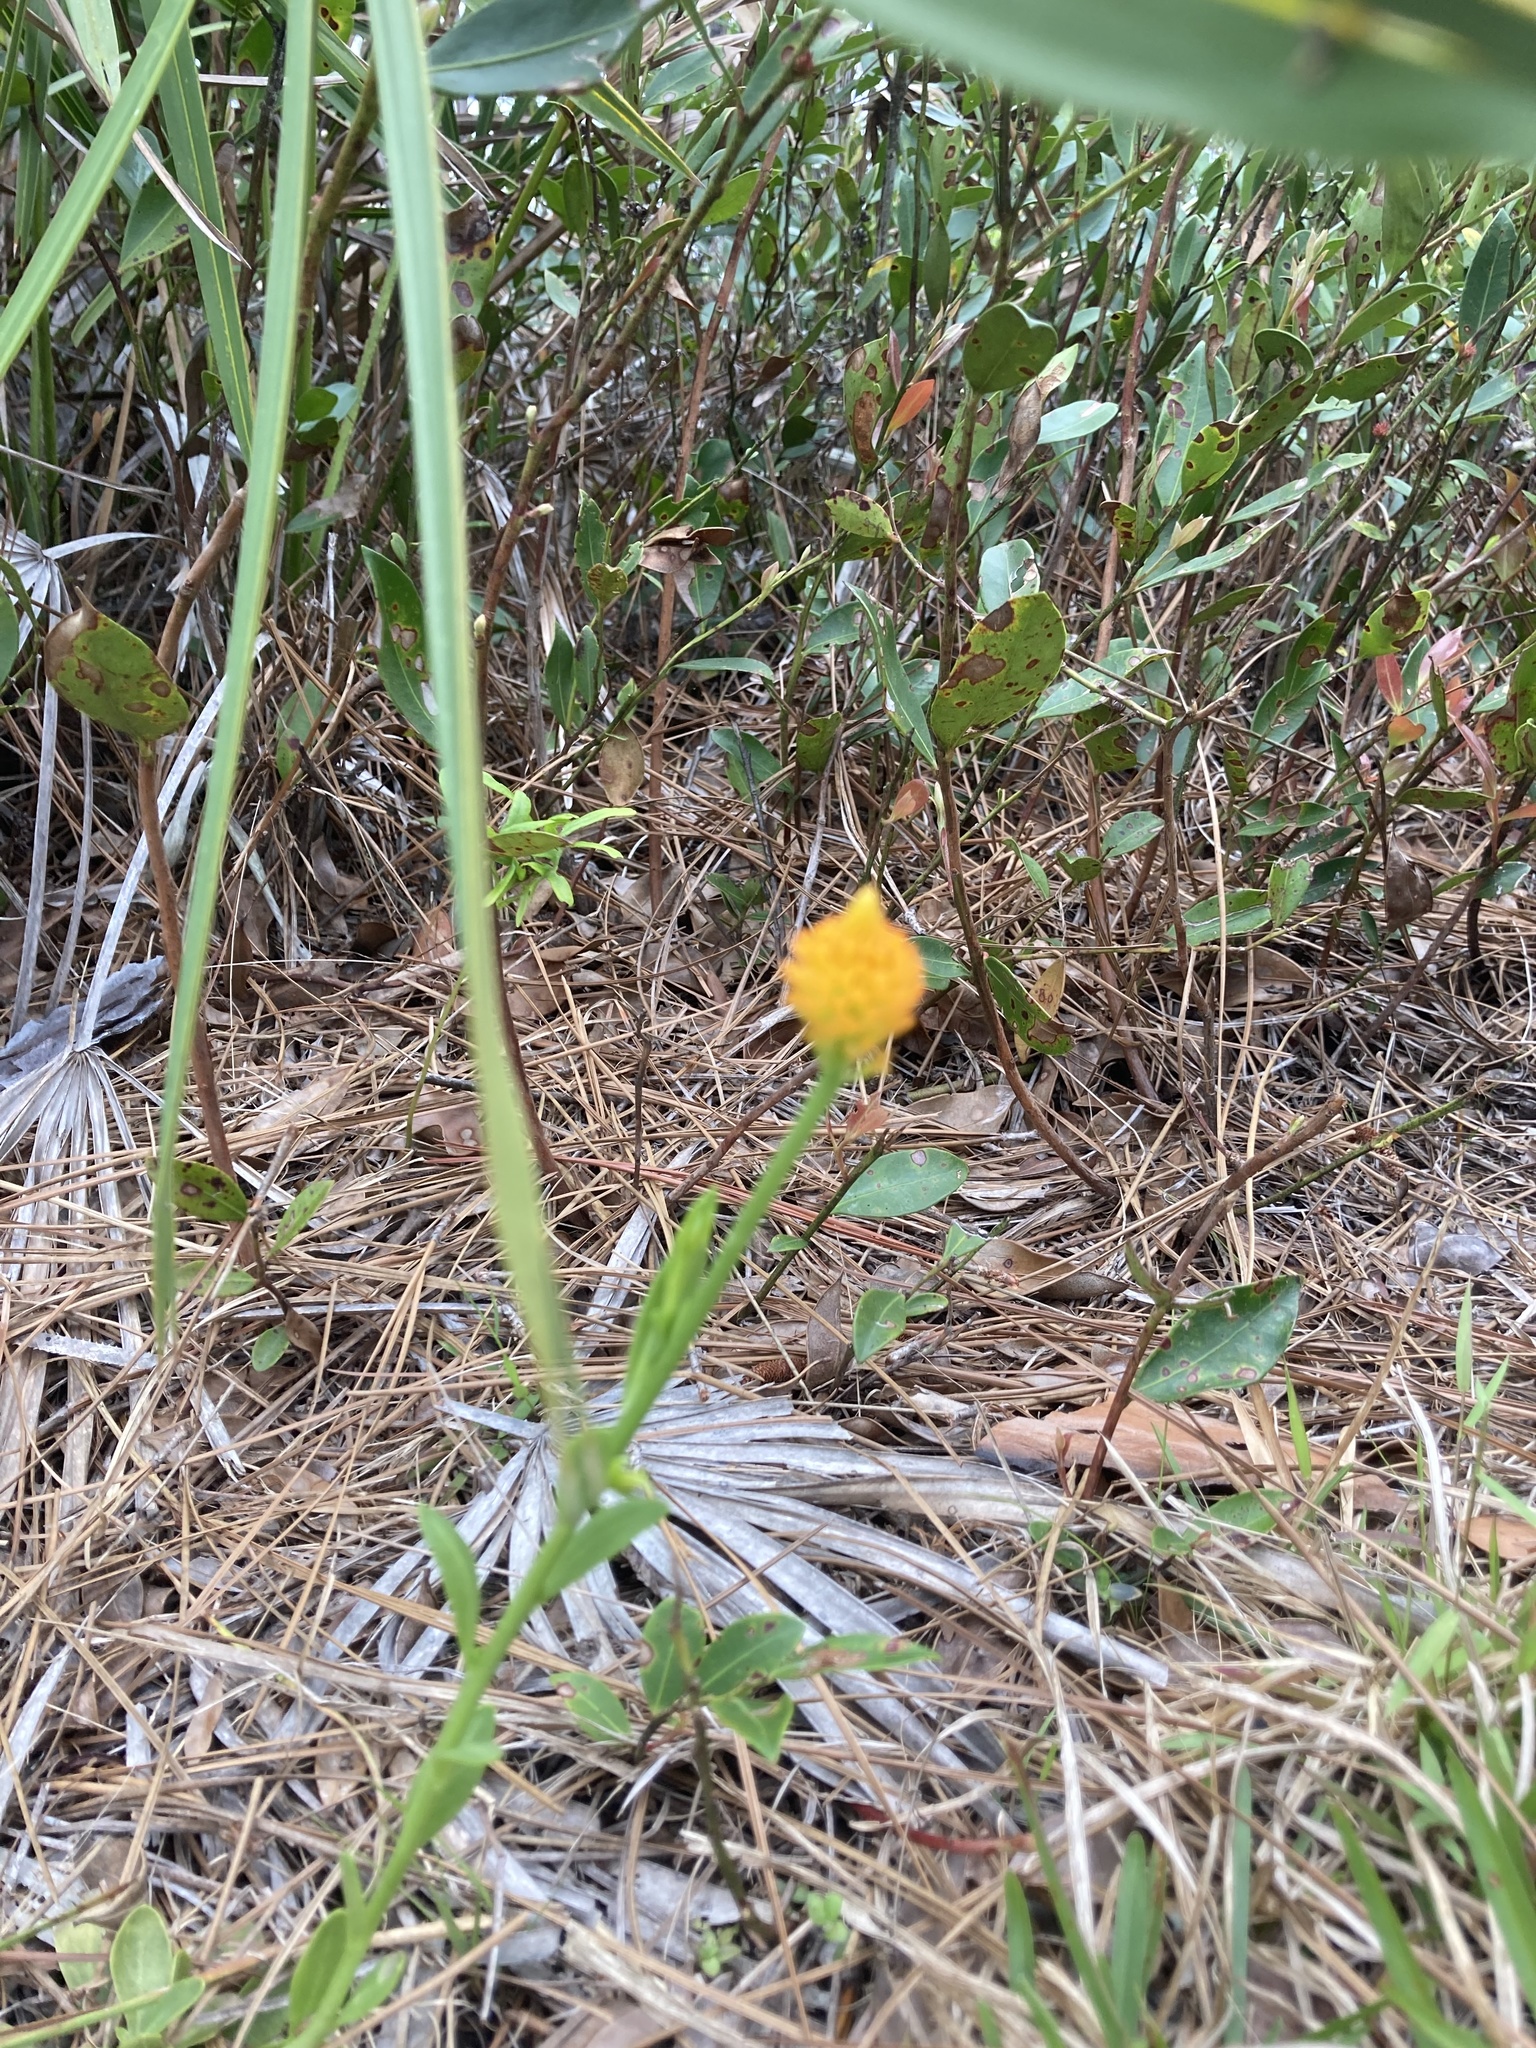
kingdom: Plantae
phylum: Tracheophyta
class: Magnoliopsida
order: Fabales
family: Polygalaceae
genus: Polygala
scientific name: Polygala lutea
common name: Orange milkwort
